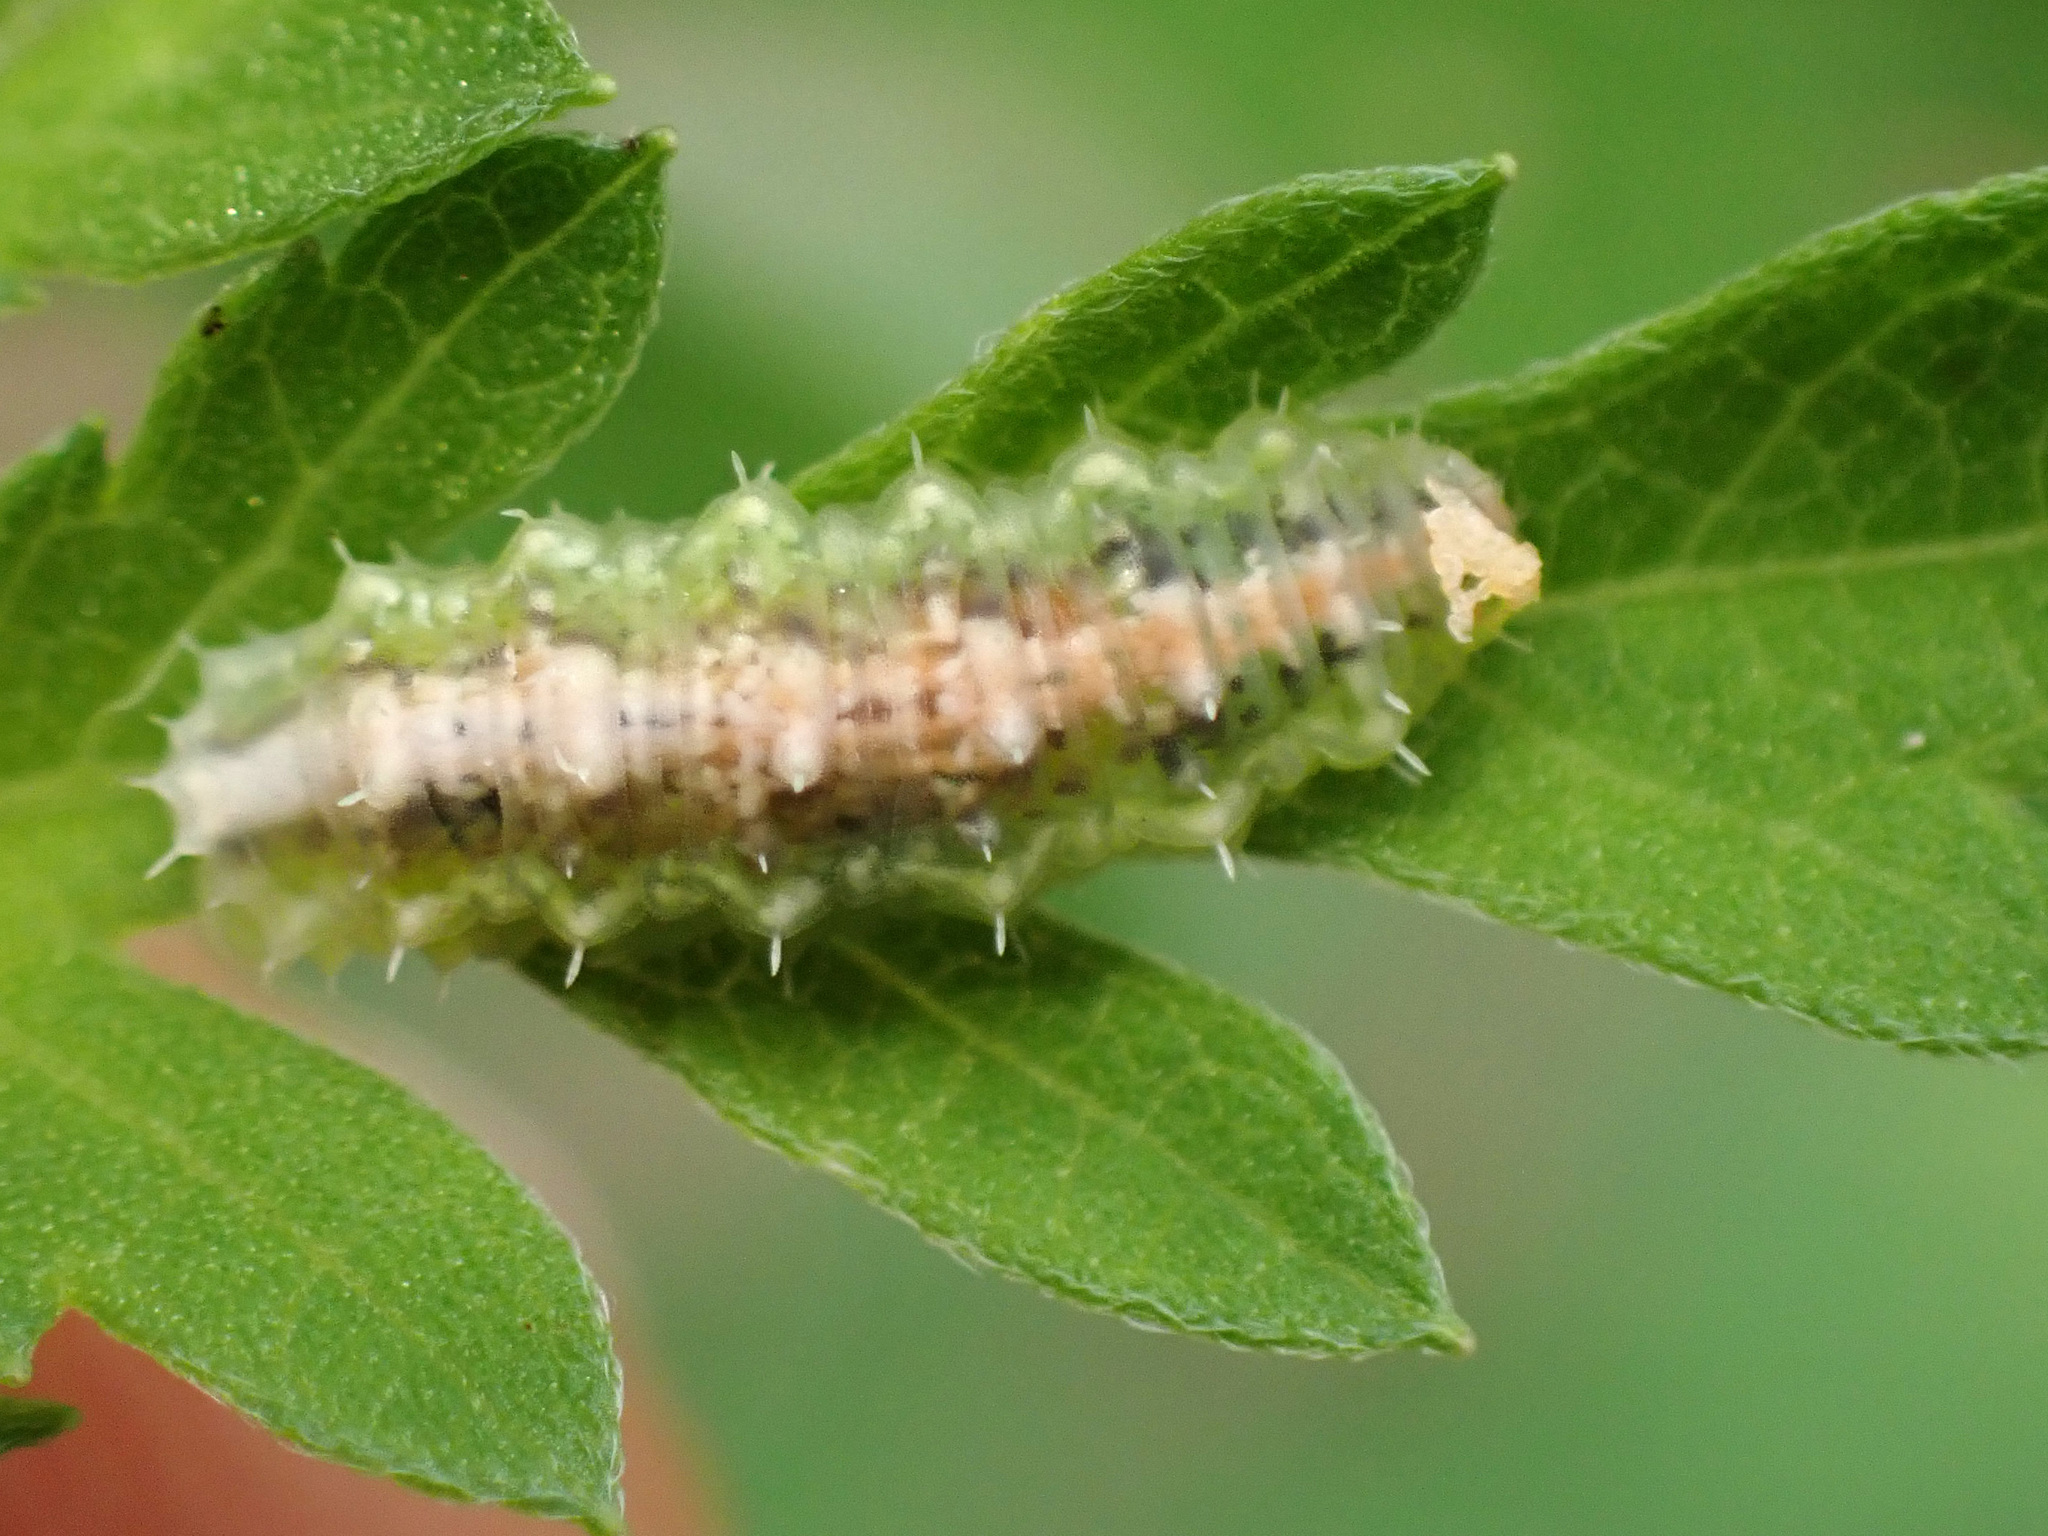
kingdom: Animalia
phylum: Arthropoda
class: Insecta
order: Diptera
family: Syrphidae
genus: Dioprosopa
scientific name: Dioprosopa clavatus
